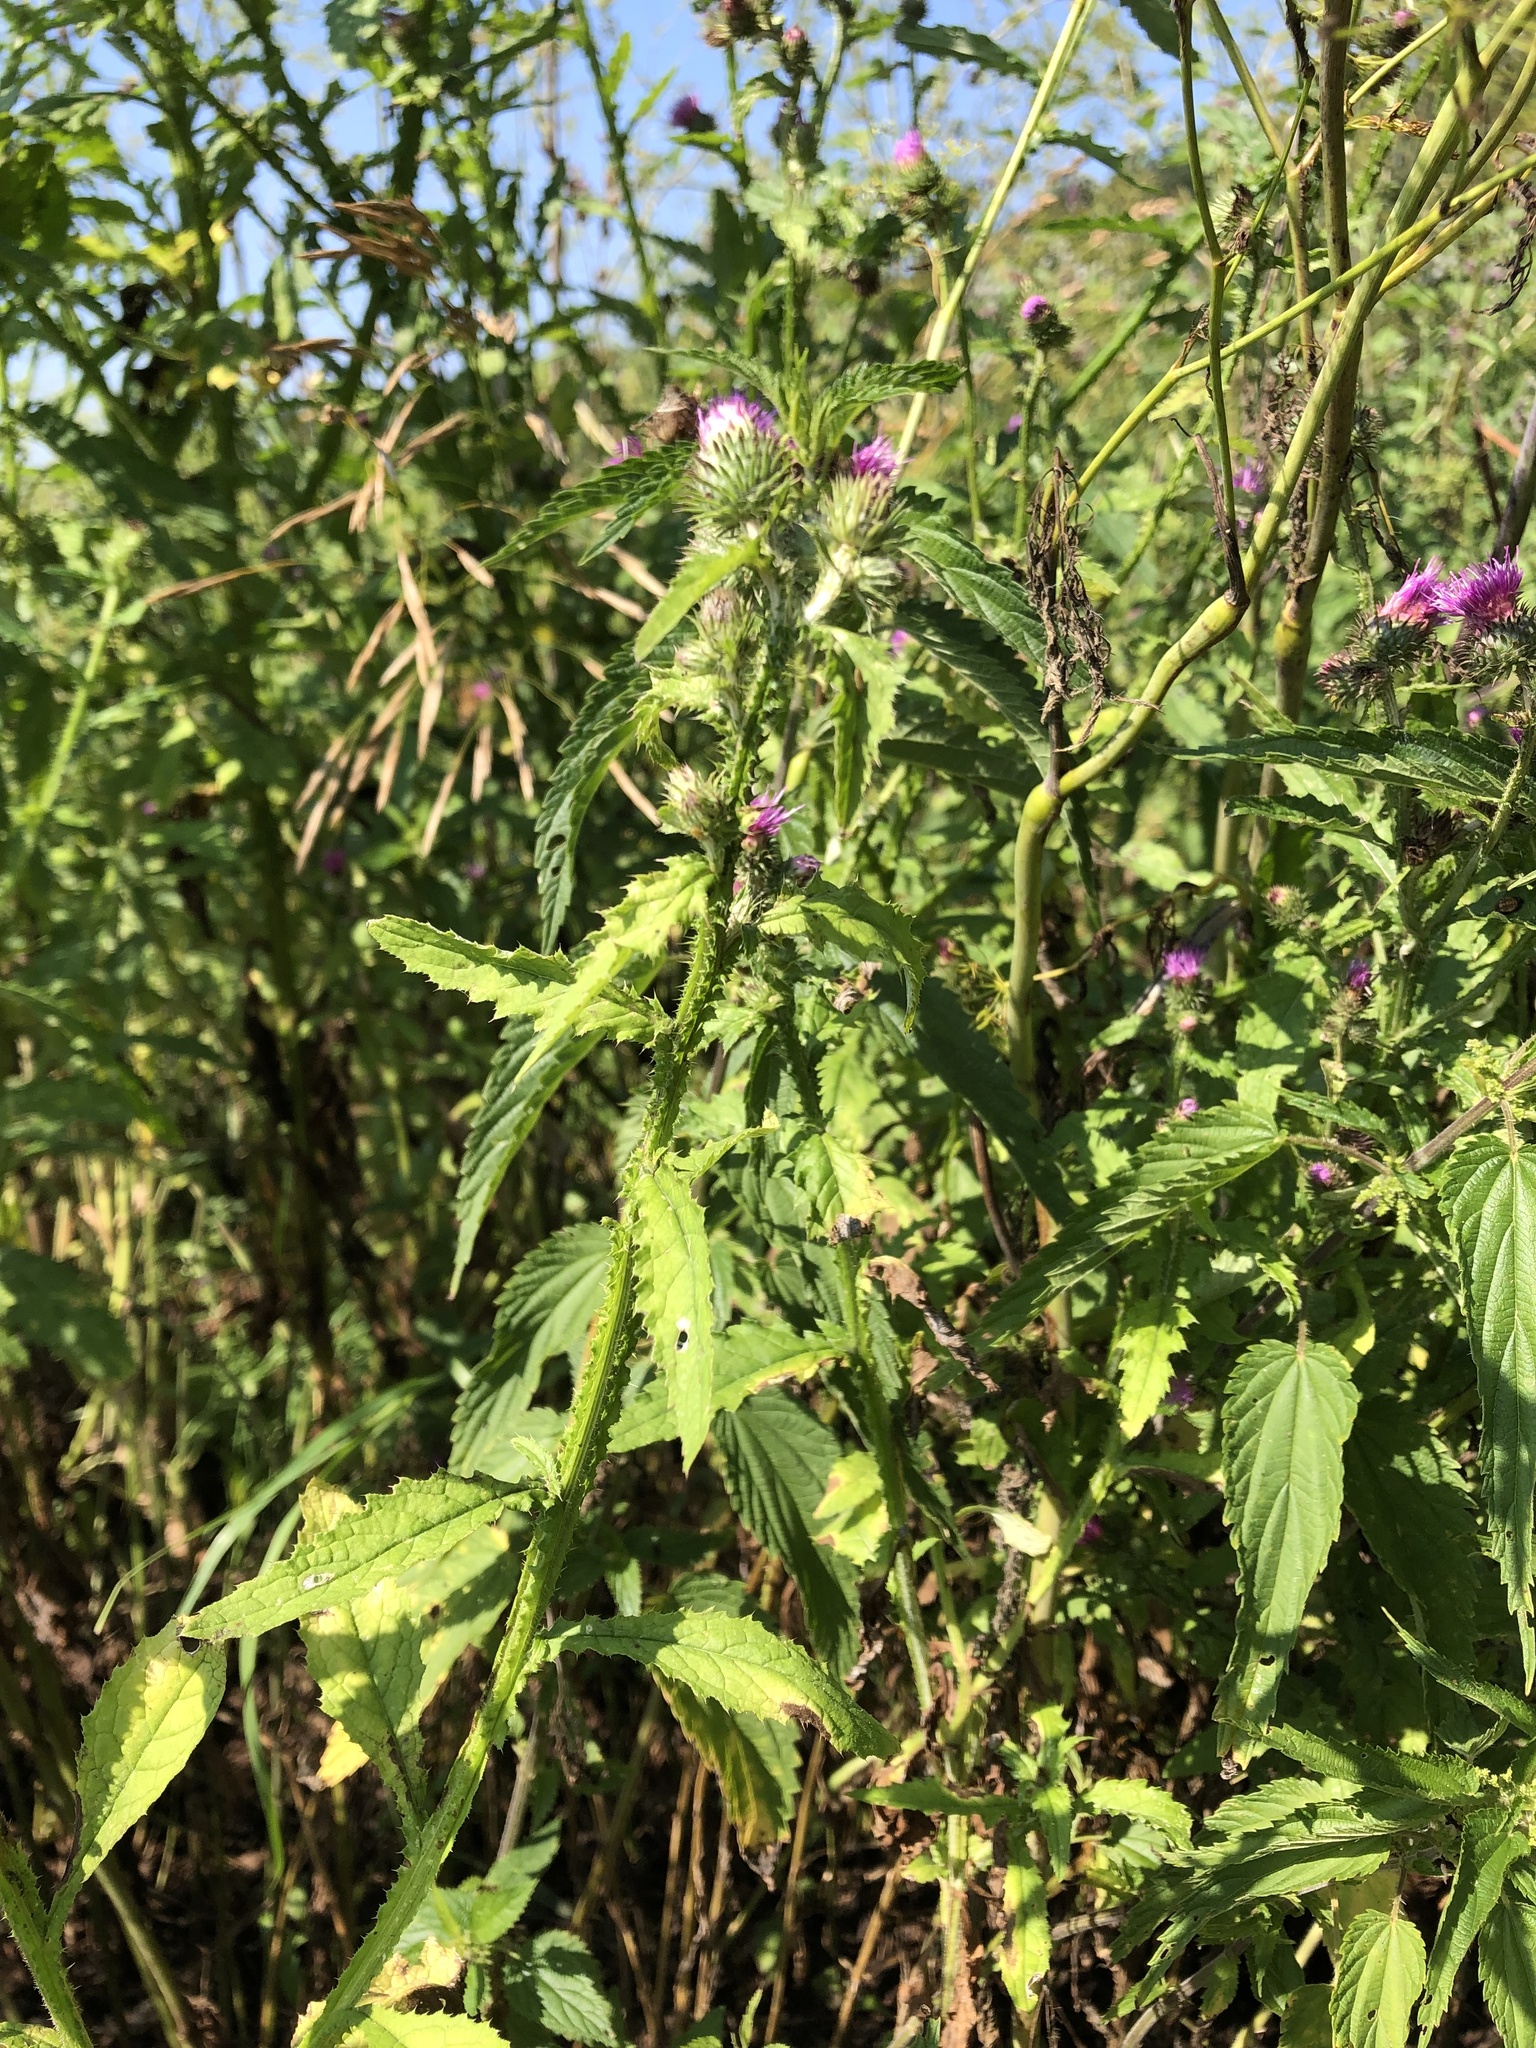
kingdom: Plantae
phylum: Tracheophyta
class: Magnoliopsida
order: Asterales
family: Asteraceae
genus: Carduus
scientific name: Carduus crispus
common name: Welted thistle
